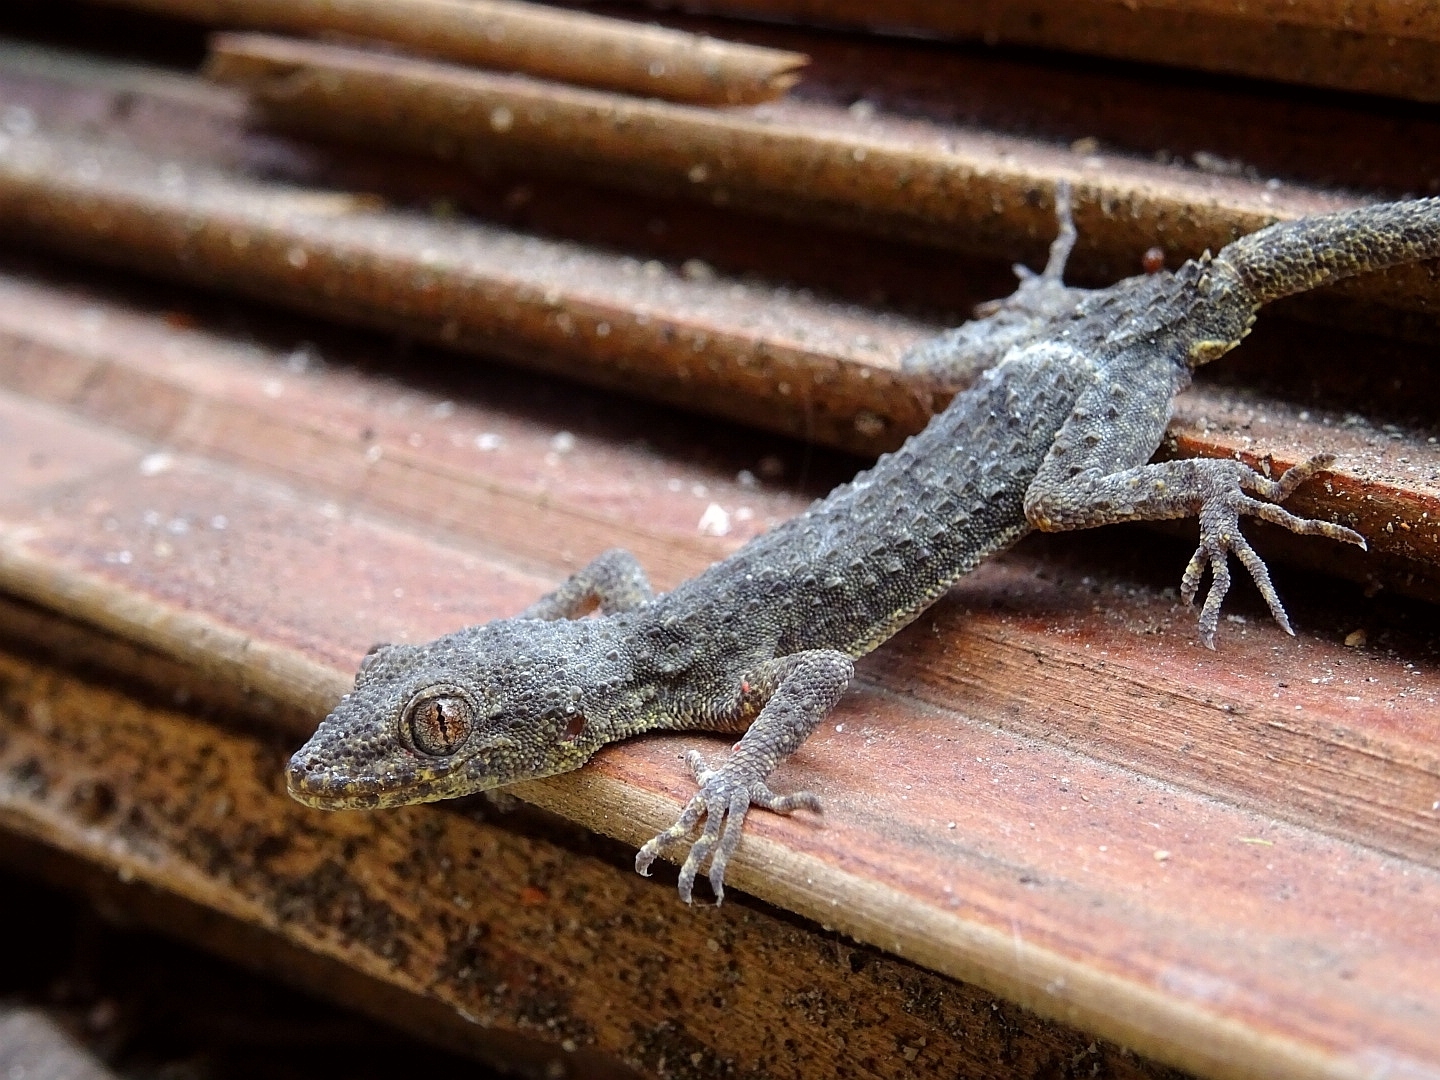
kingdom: Animalia
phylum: Chordata
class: Squamata
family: Gekkonidae
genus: Mediodactylus
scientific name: Mediodactylus kotschyi
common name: Kotschy's gecko
